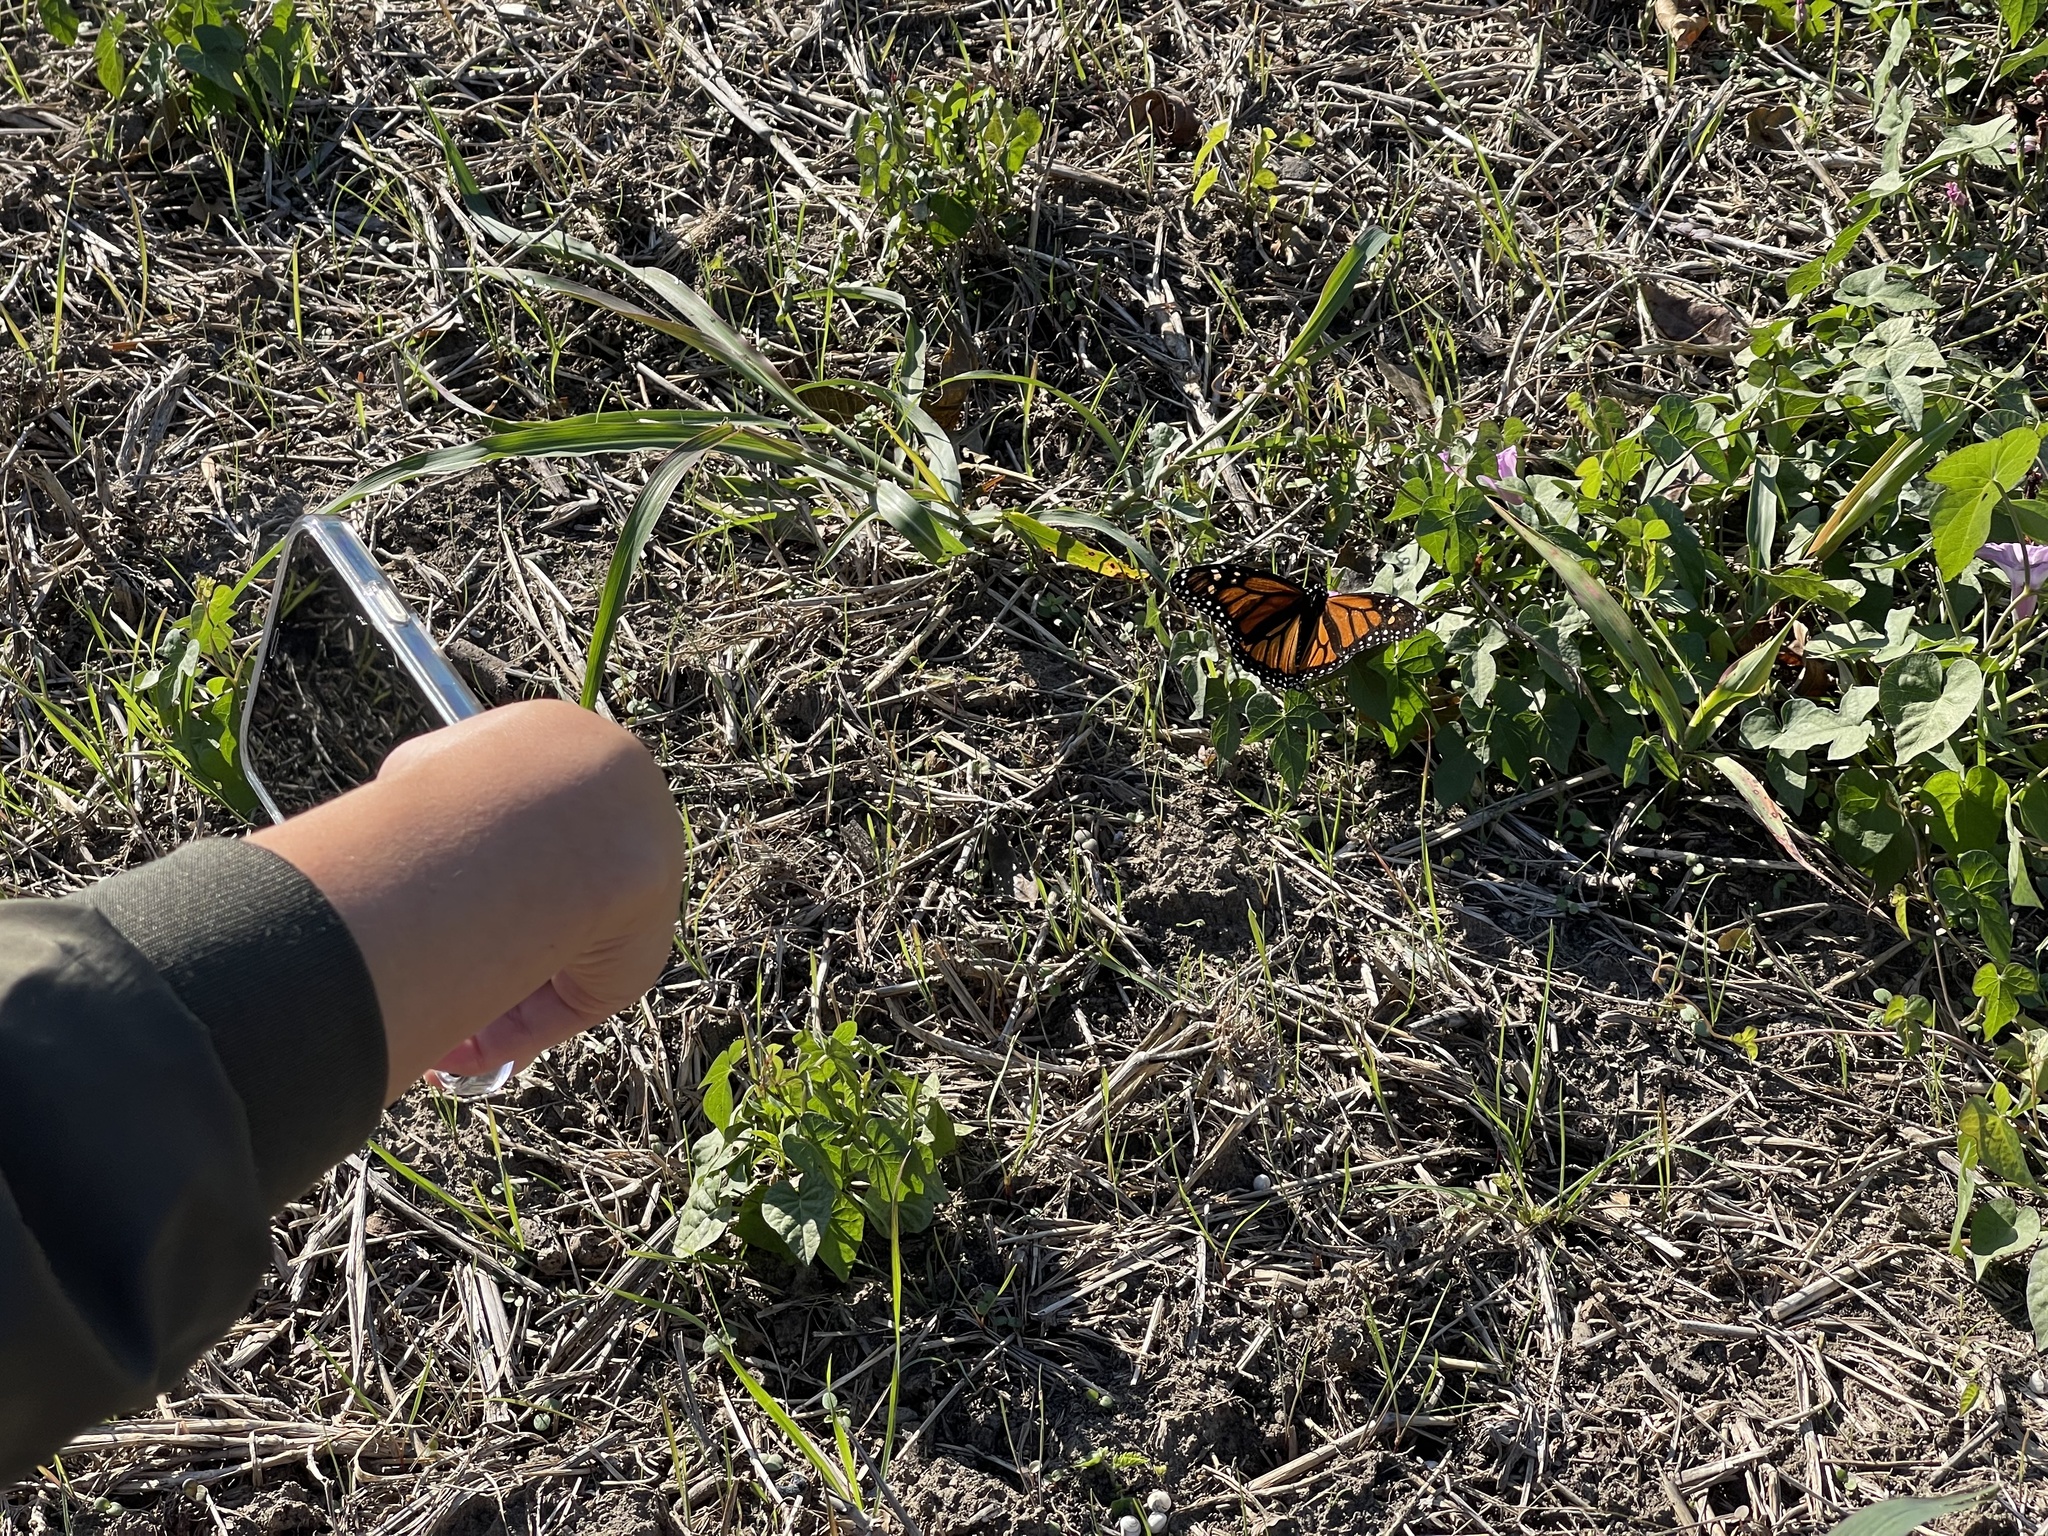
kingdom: Animalia
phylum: Arthropoda
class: Insecta
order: Lepidoptera
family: Nymphalidae
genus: Danaus
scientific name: Danaus plexippus
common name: Monarch
